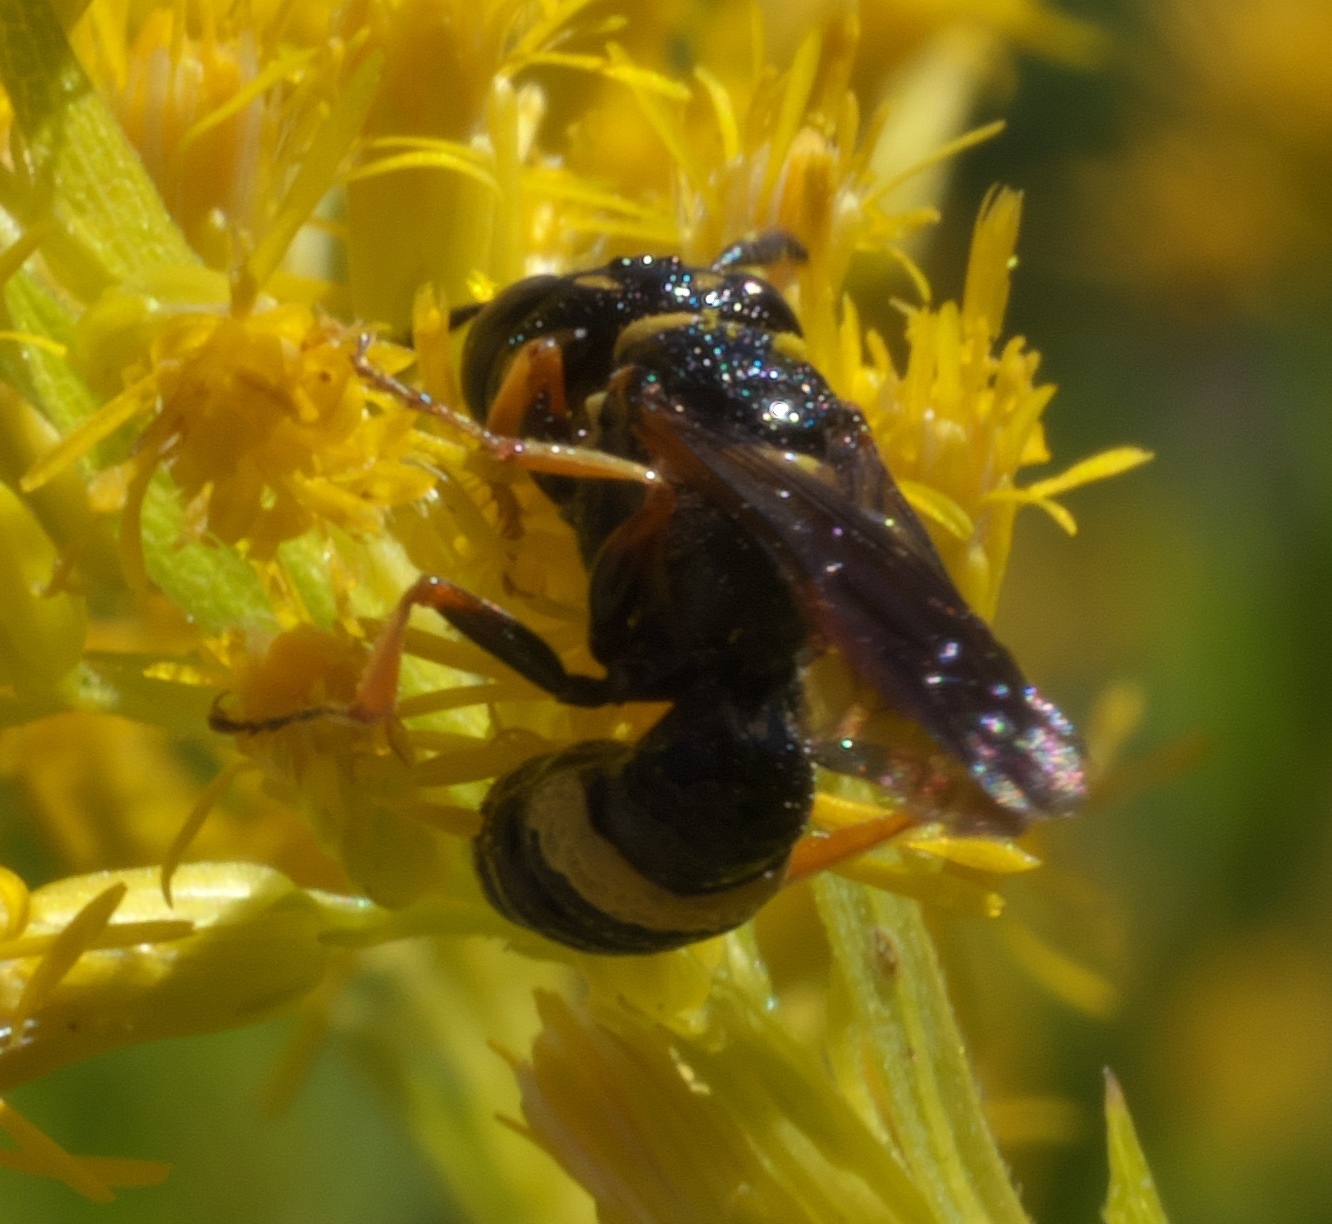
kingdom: Animalia
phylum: Arthropoda
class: Insecta
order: Hymenoptera
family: Crabronidae
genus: Philanthus
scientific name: Philanthus gibbosus
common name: Humped beewolf
